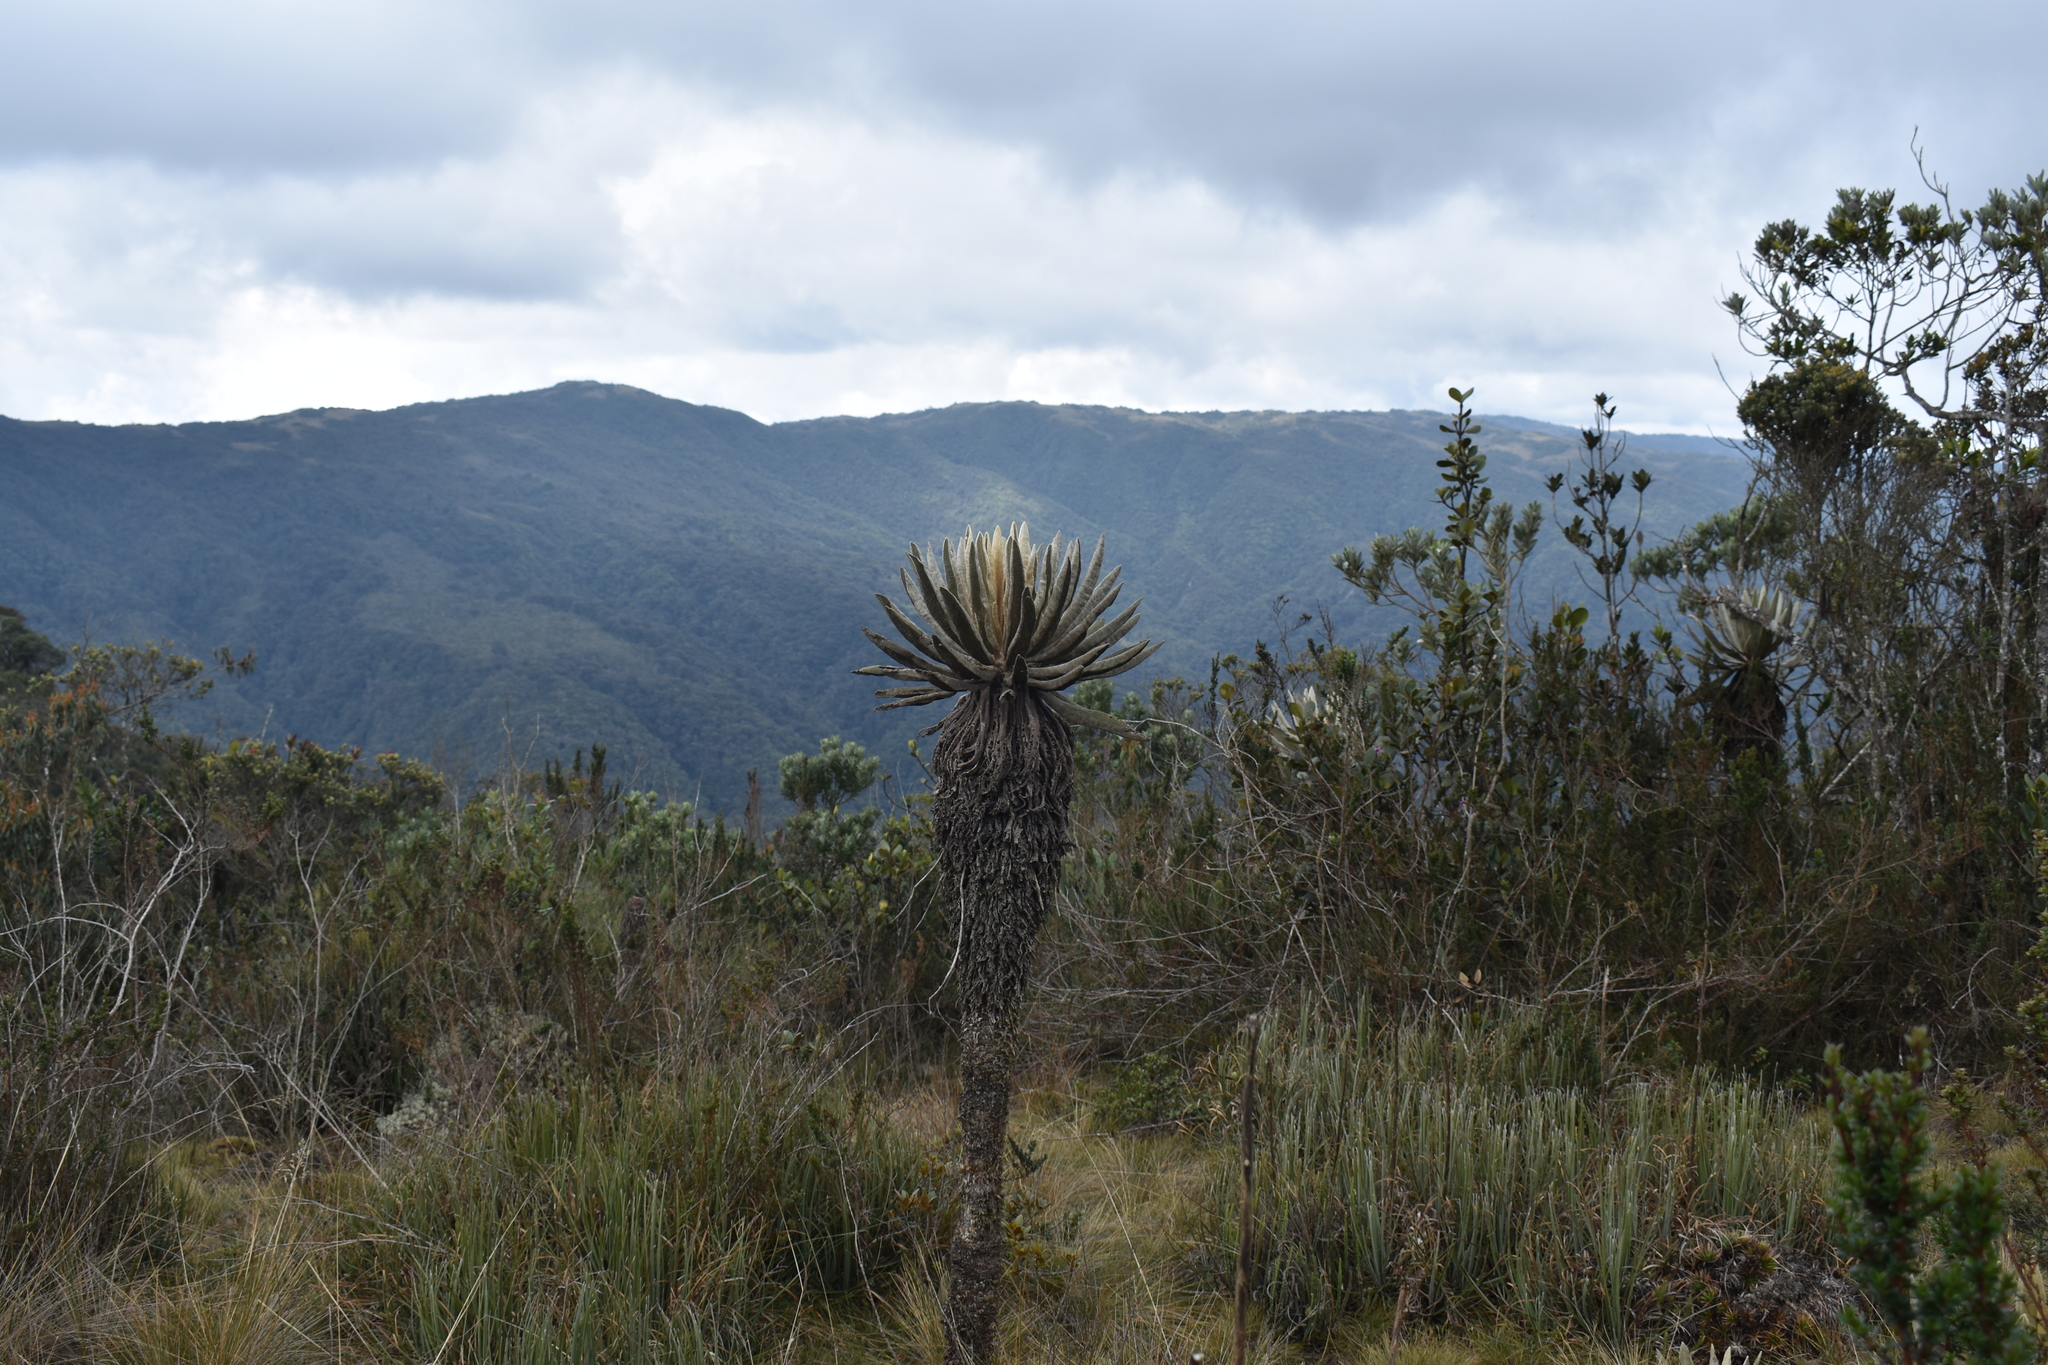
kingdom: Plantae
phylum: Tracheophyta
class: Magnoliopsida
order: Asterales
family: Asteraceae
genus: Espeletia
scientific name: Espeletia occidentalis
